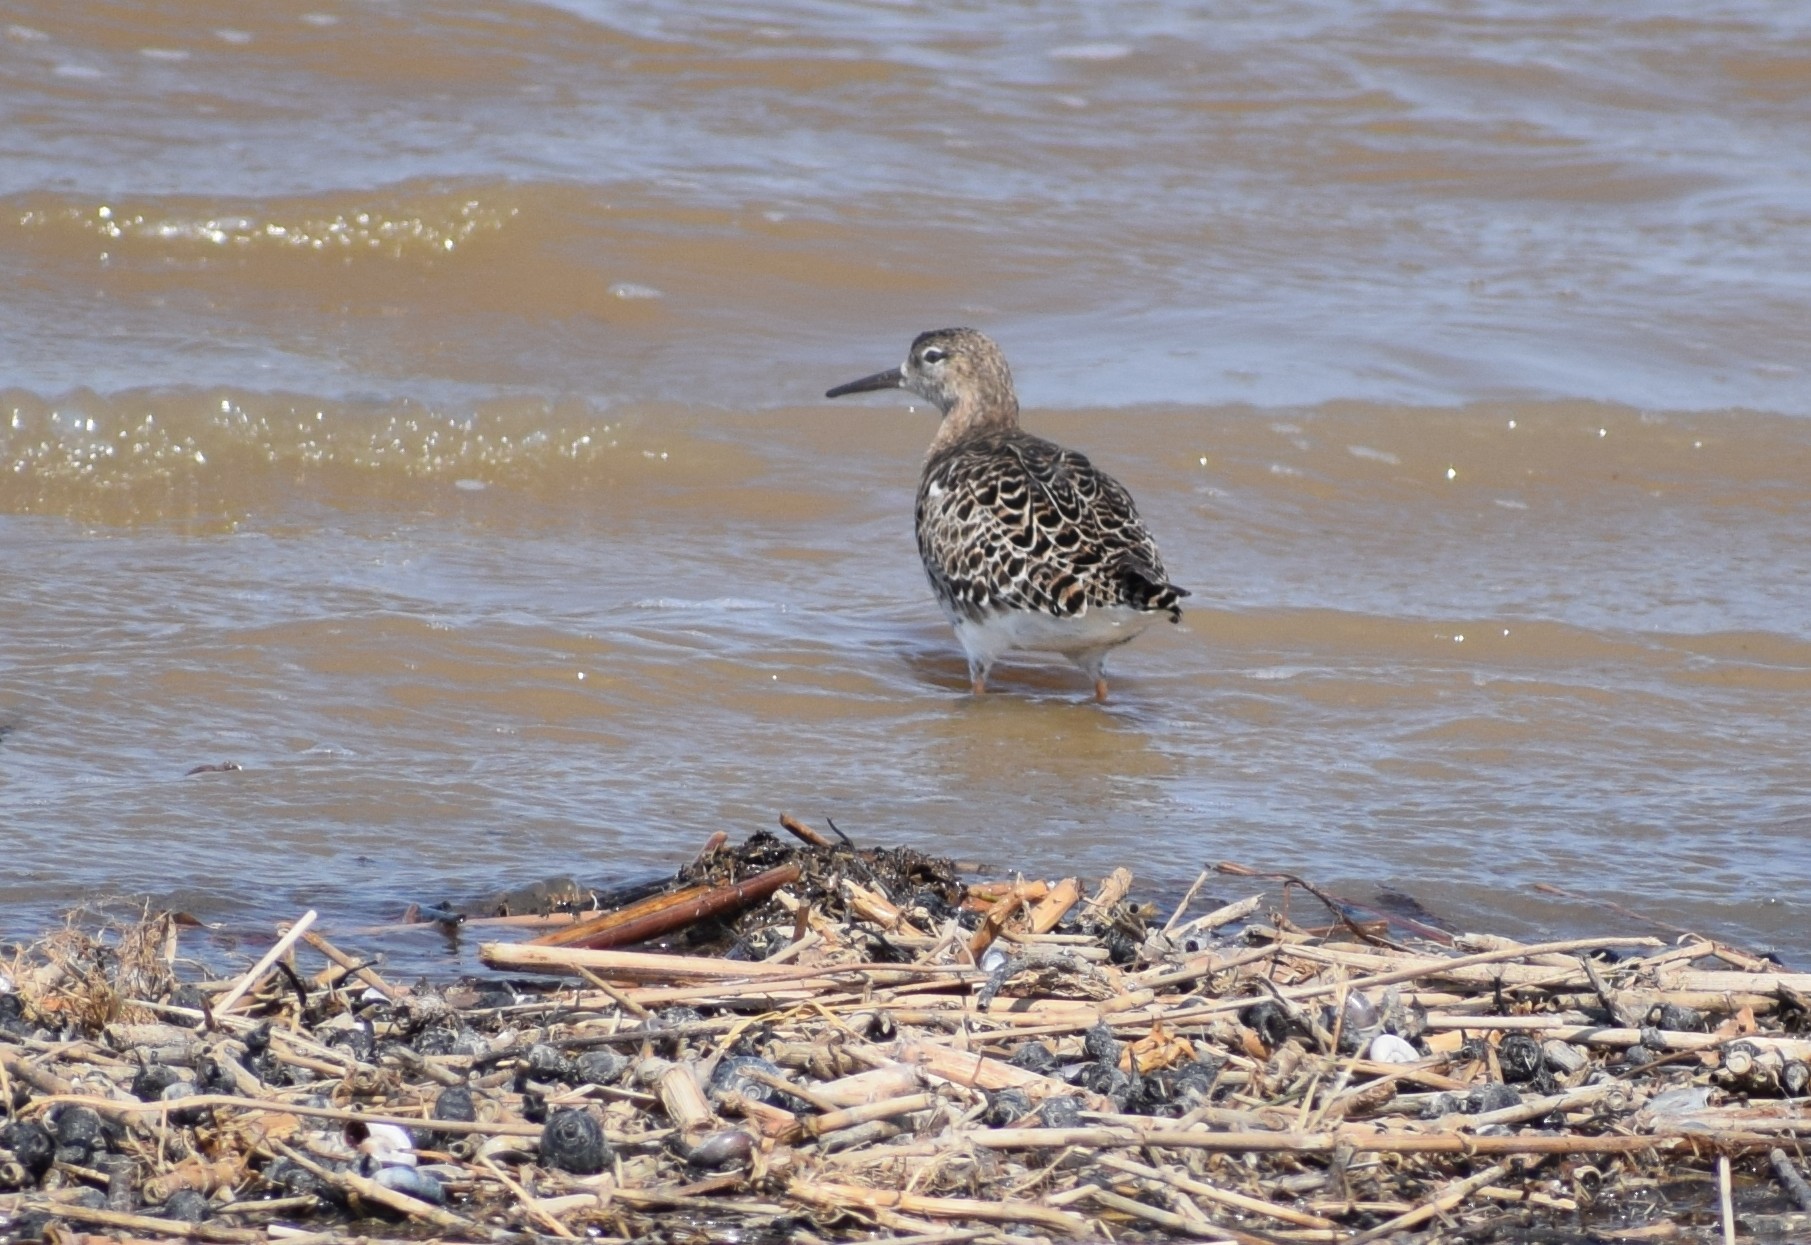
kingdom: Animalia
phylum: Chordata
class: Aves
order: Charadriiformes
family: Scolopacidae
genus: Calidris
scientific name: Calidris pugnax
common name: Ruff
